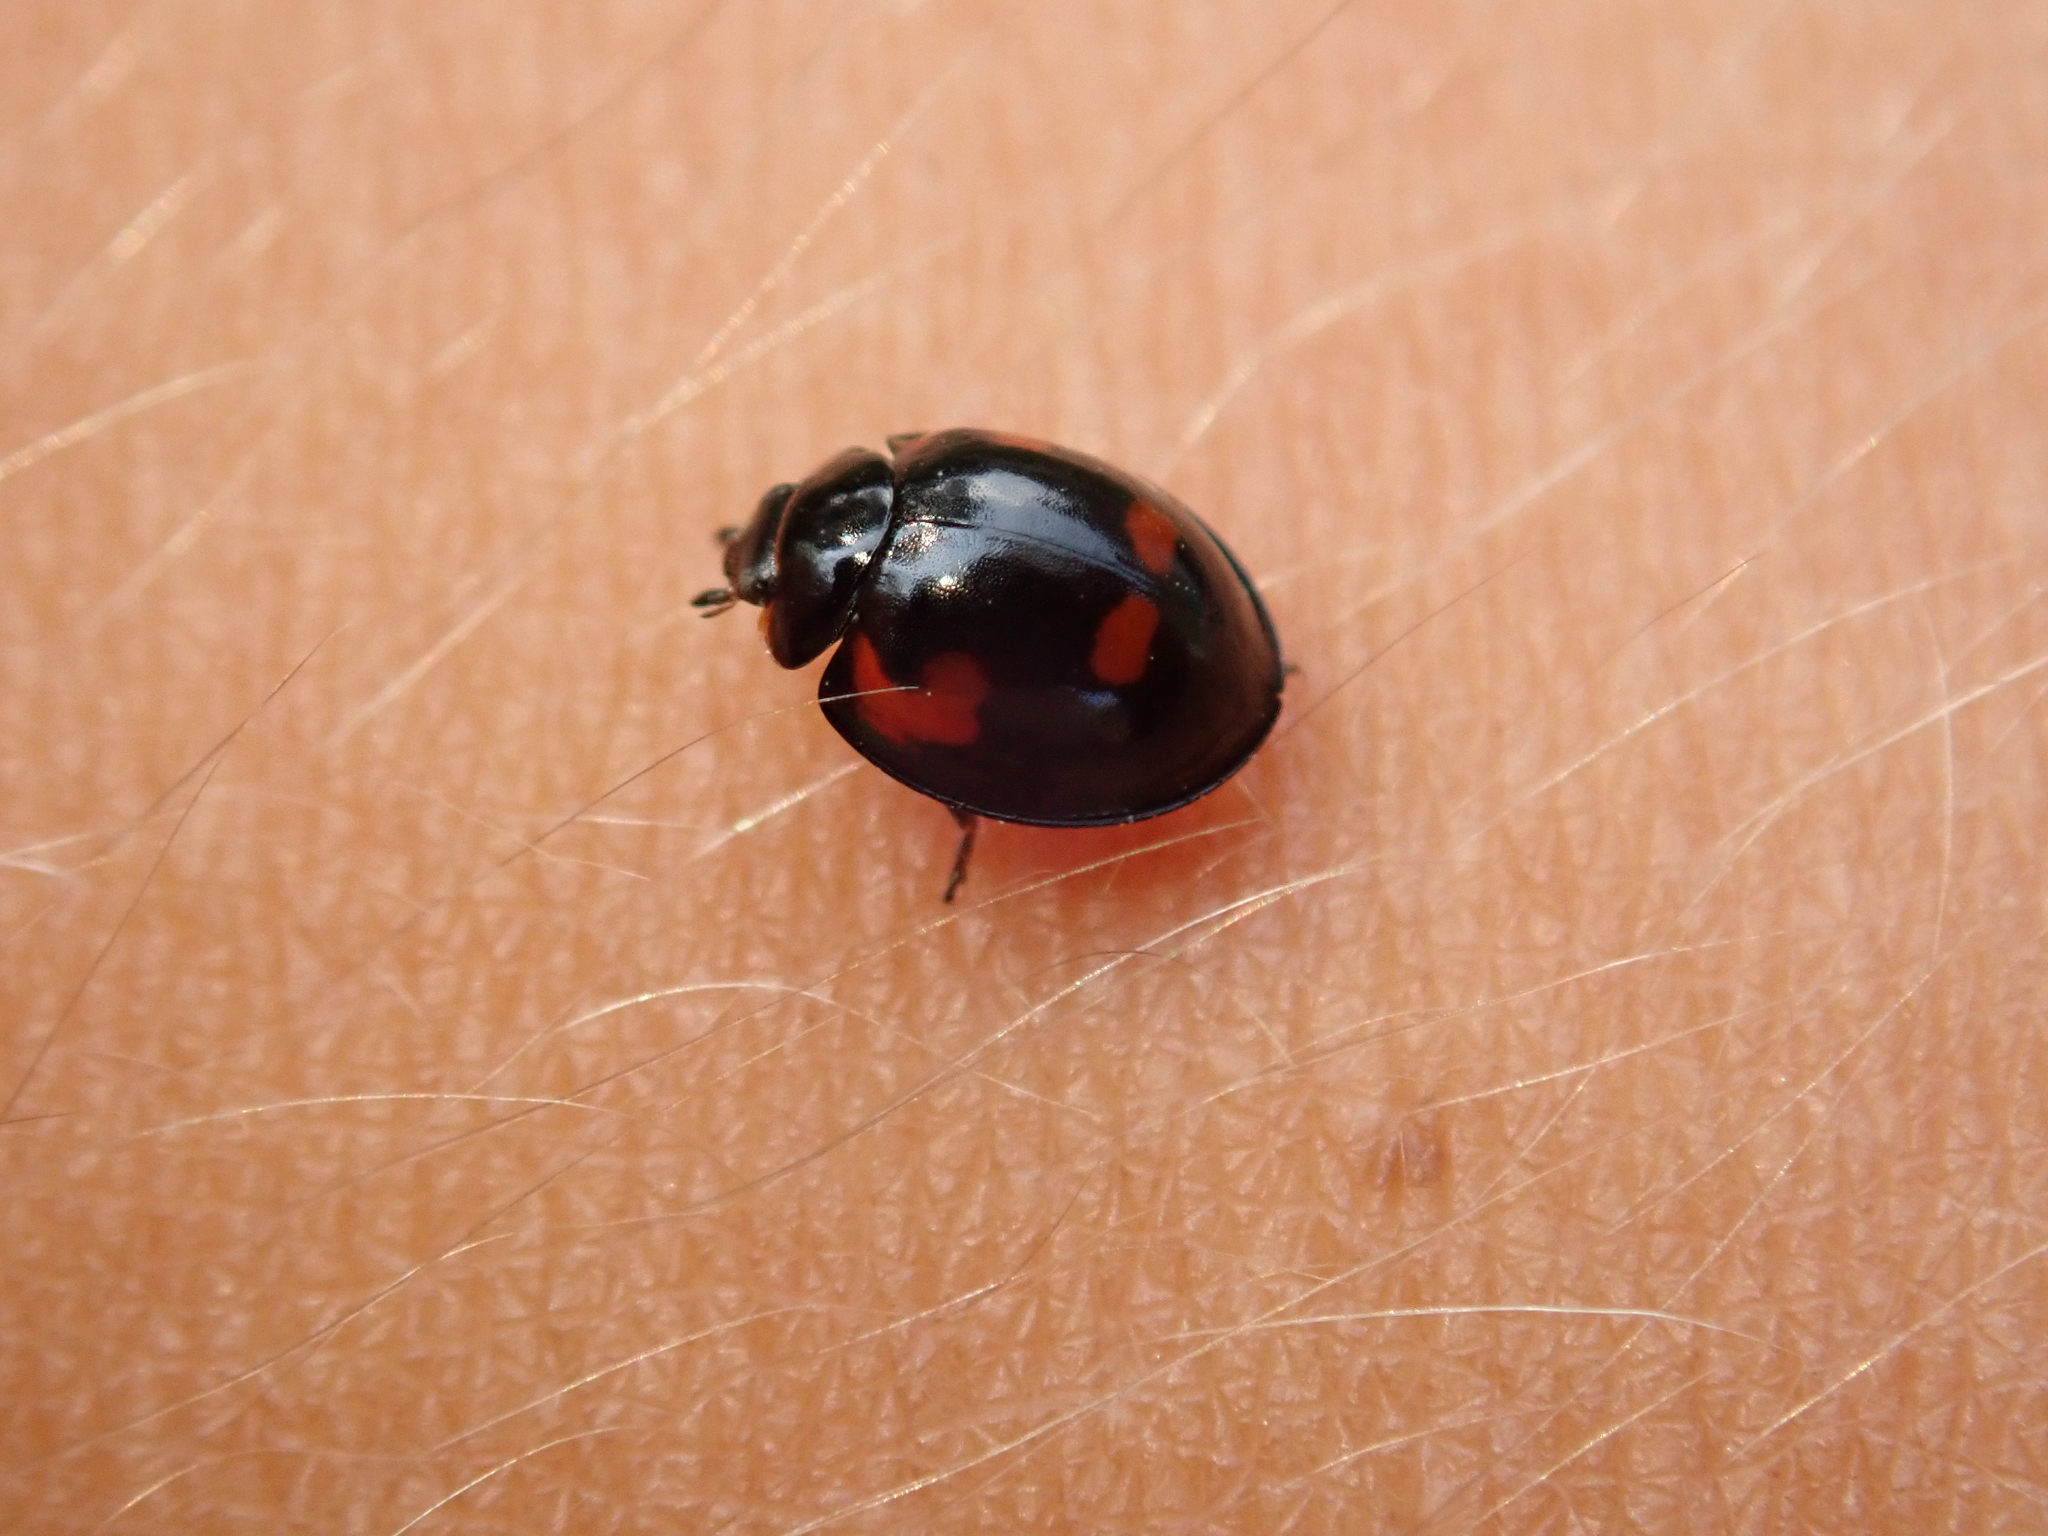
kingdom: Animalia
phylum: Arthropoda
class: Insecta
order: Coleoptera
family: Coccinellidae
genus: Brumus
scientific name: Brumus quadripustulatus
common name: Ladybird beetle
